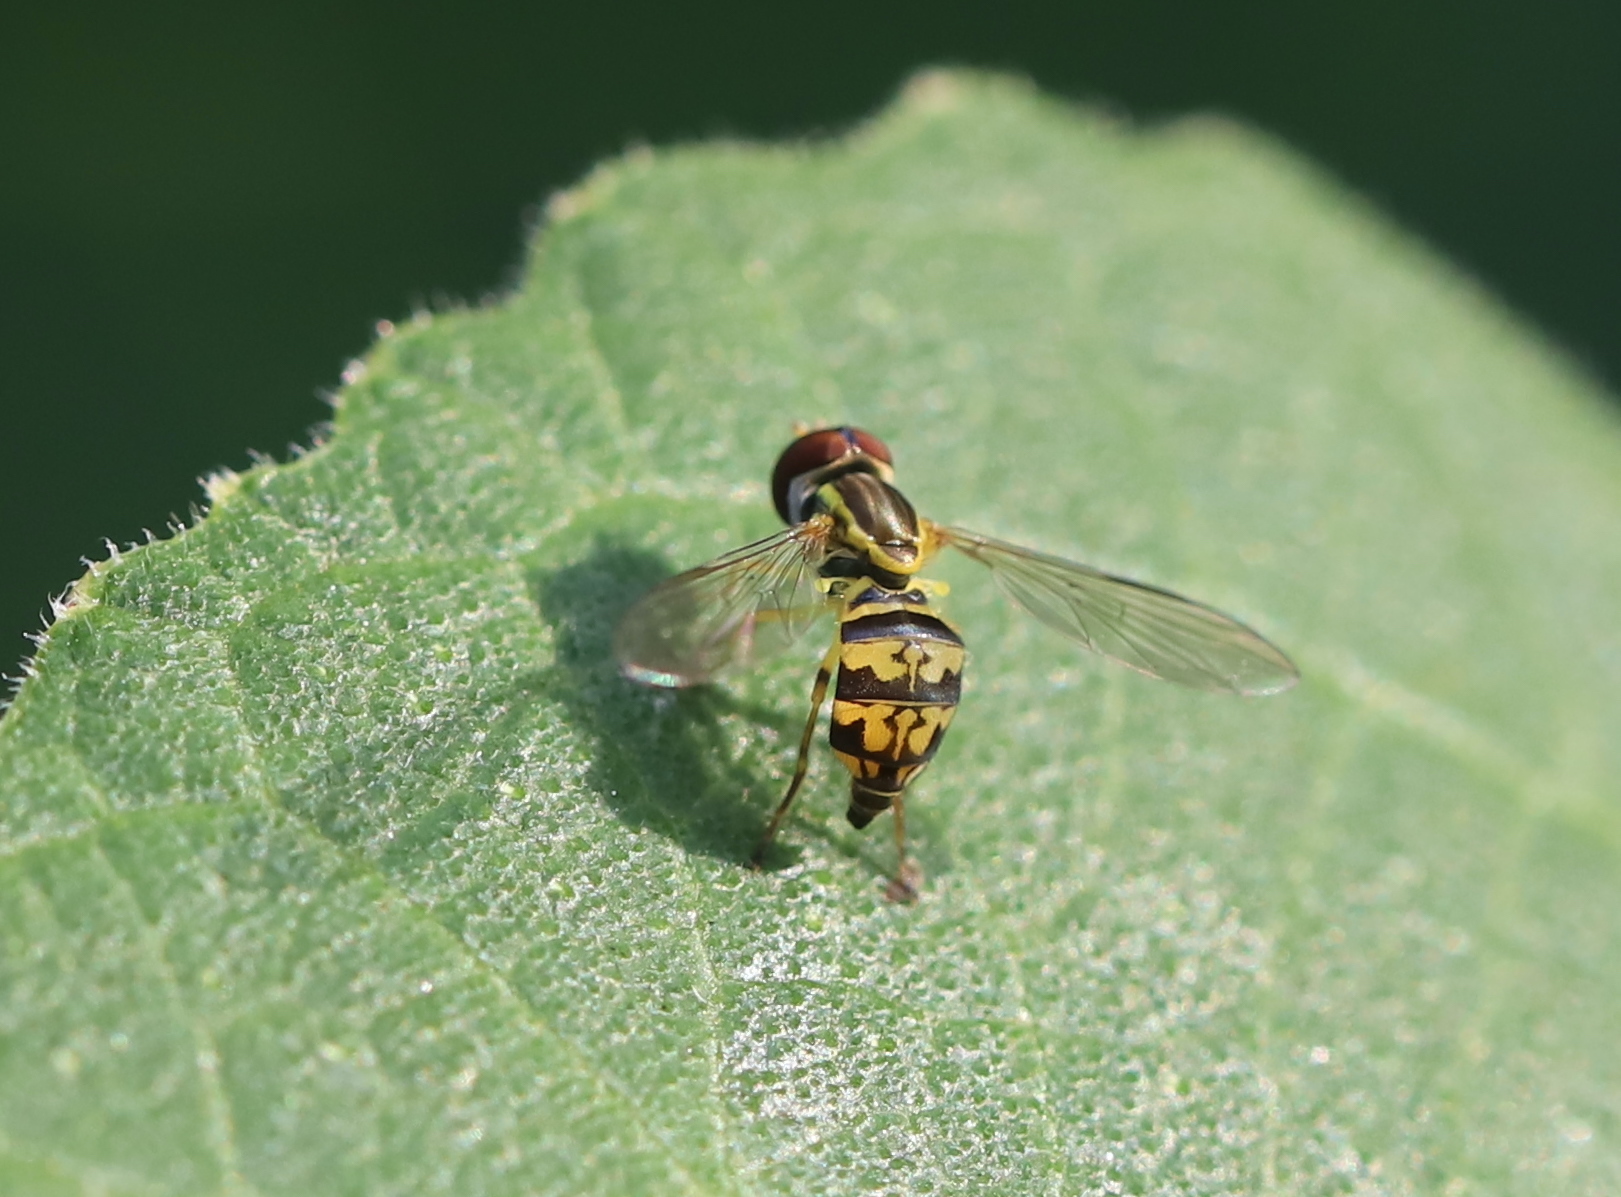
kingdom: Animalia
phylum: Arthropoda
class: Insecta
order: Diptera
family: Syrphidae
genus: Toxomerus
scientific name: Toxomerus geminatus
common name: Eastern calligrapher
